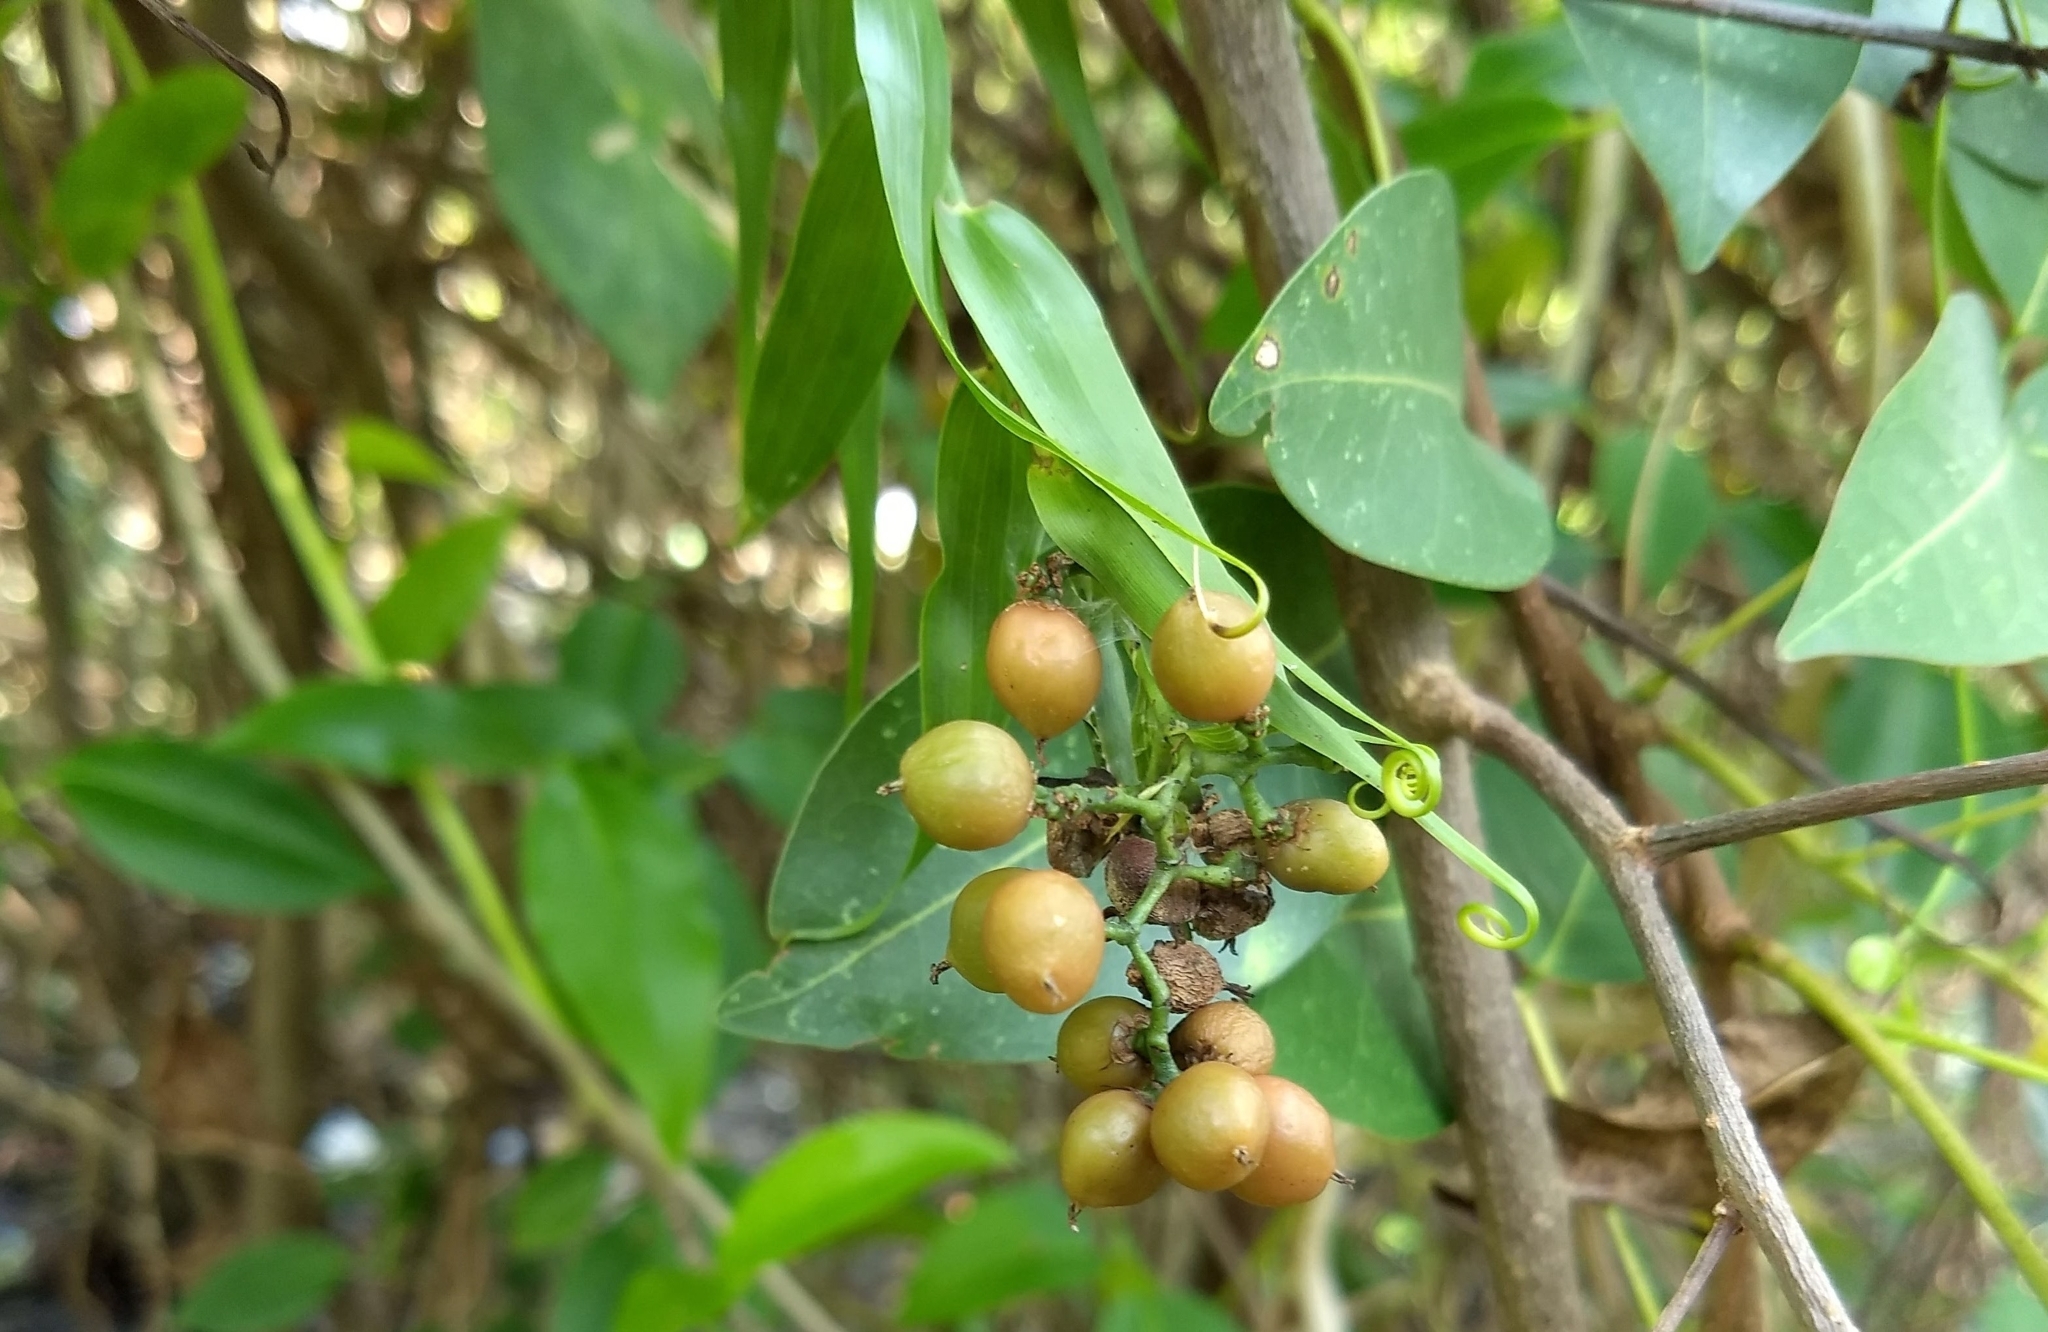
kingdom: Plantae
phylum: Tracheophyta
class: Liliopsida
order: Poales
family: Flagellariaceae
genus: Flagellaria
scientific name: Flagellaria indica
